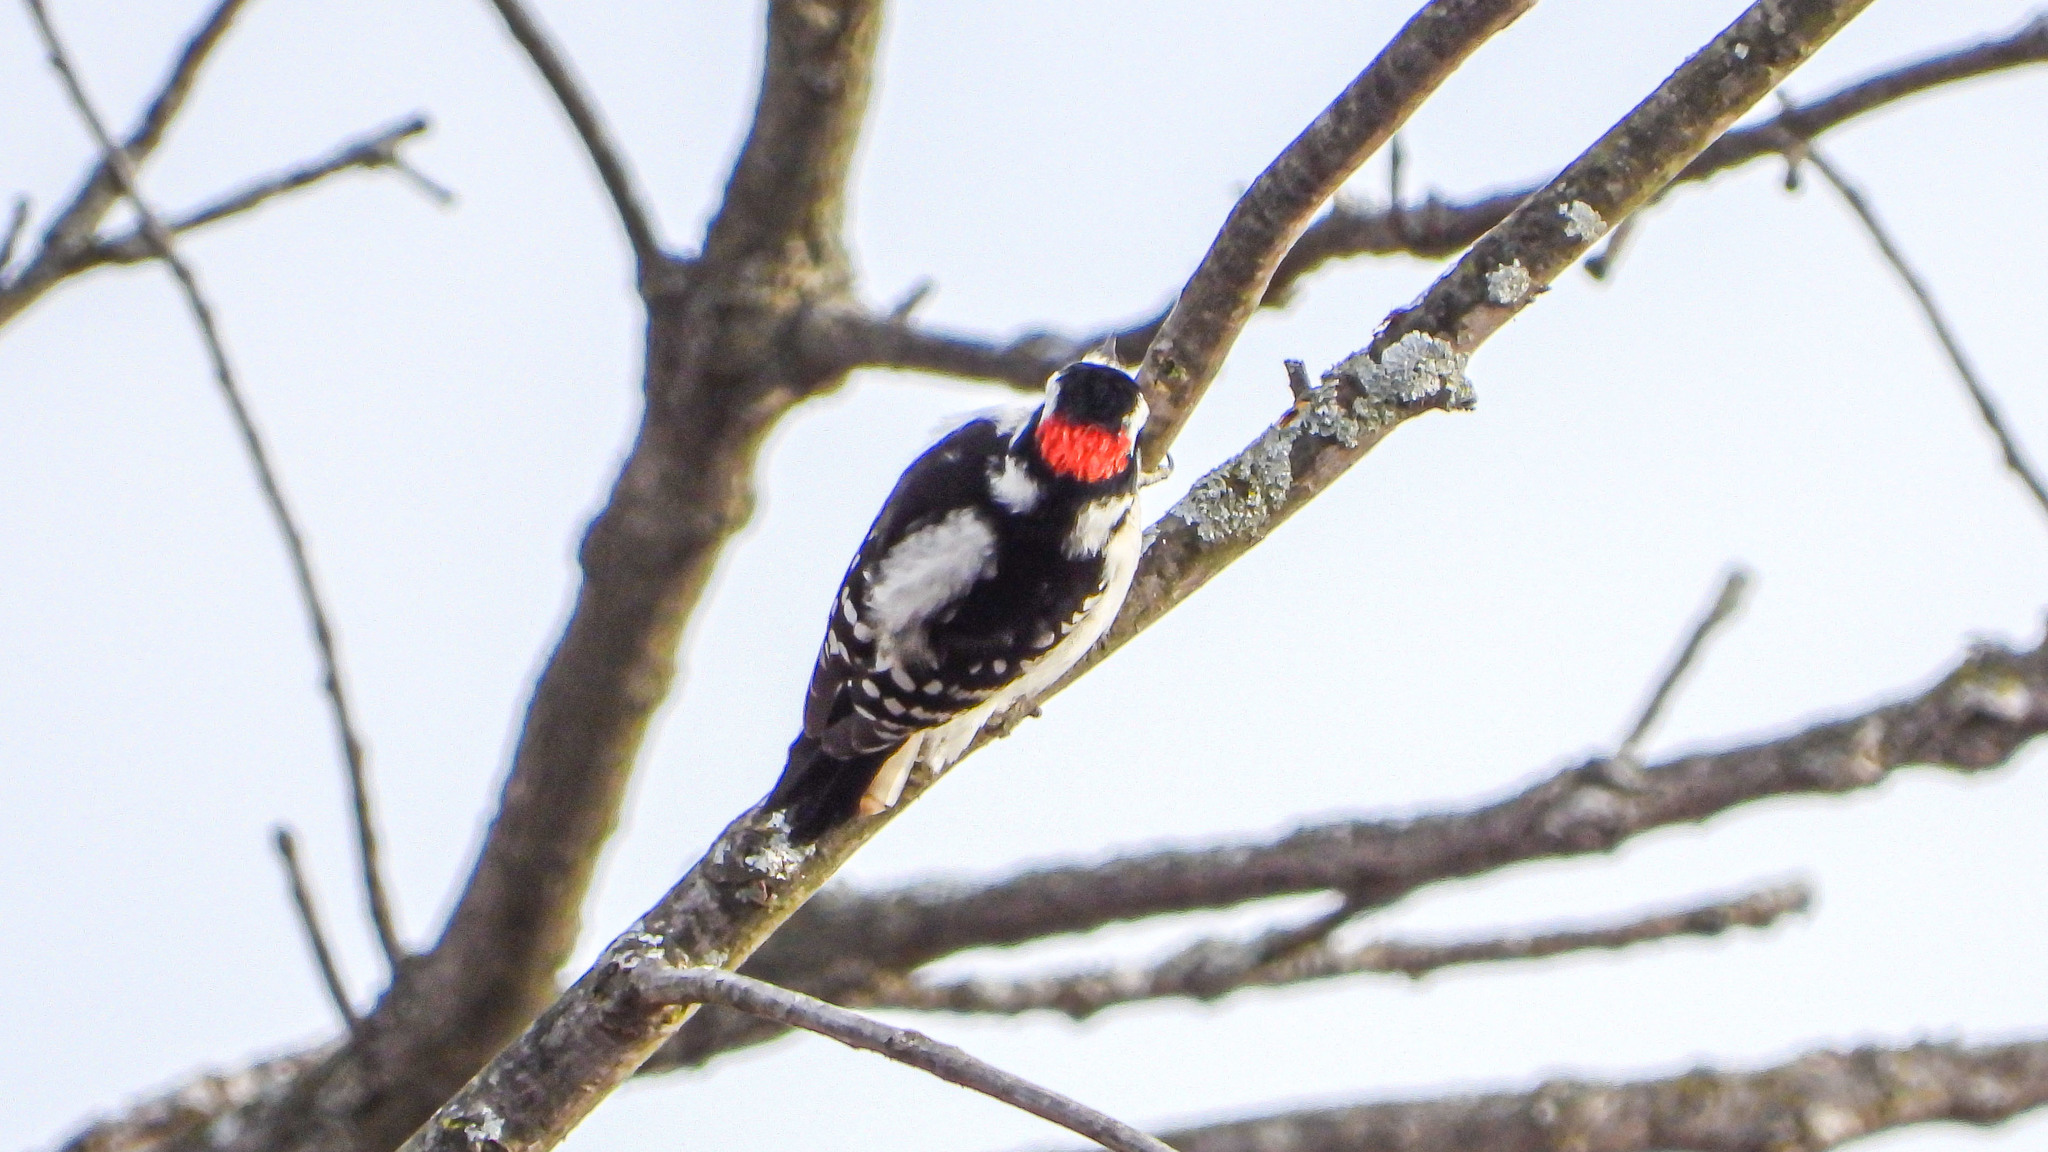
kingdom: Animalia
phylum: Chordata
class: Aves
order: Piciformes
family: Picidae
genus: Dryobates
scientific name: Dryobates pubescens
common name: Downy woodpecker
